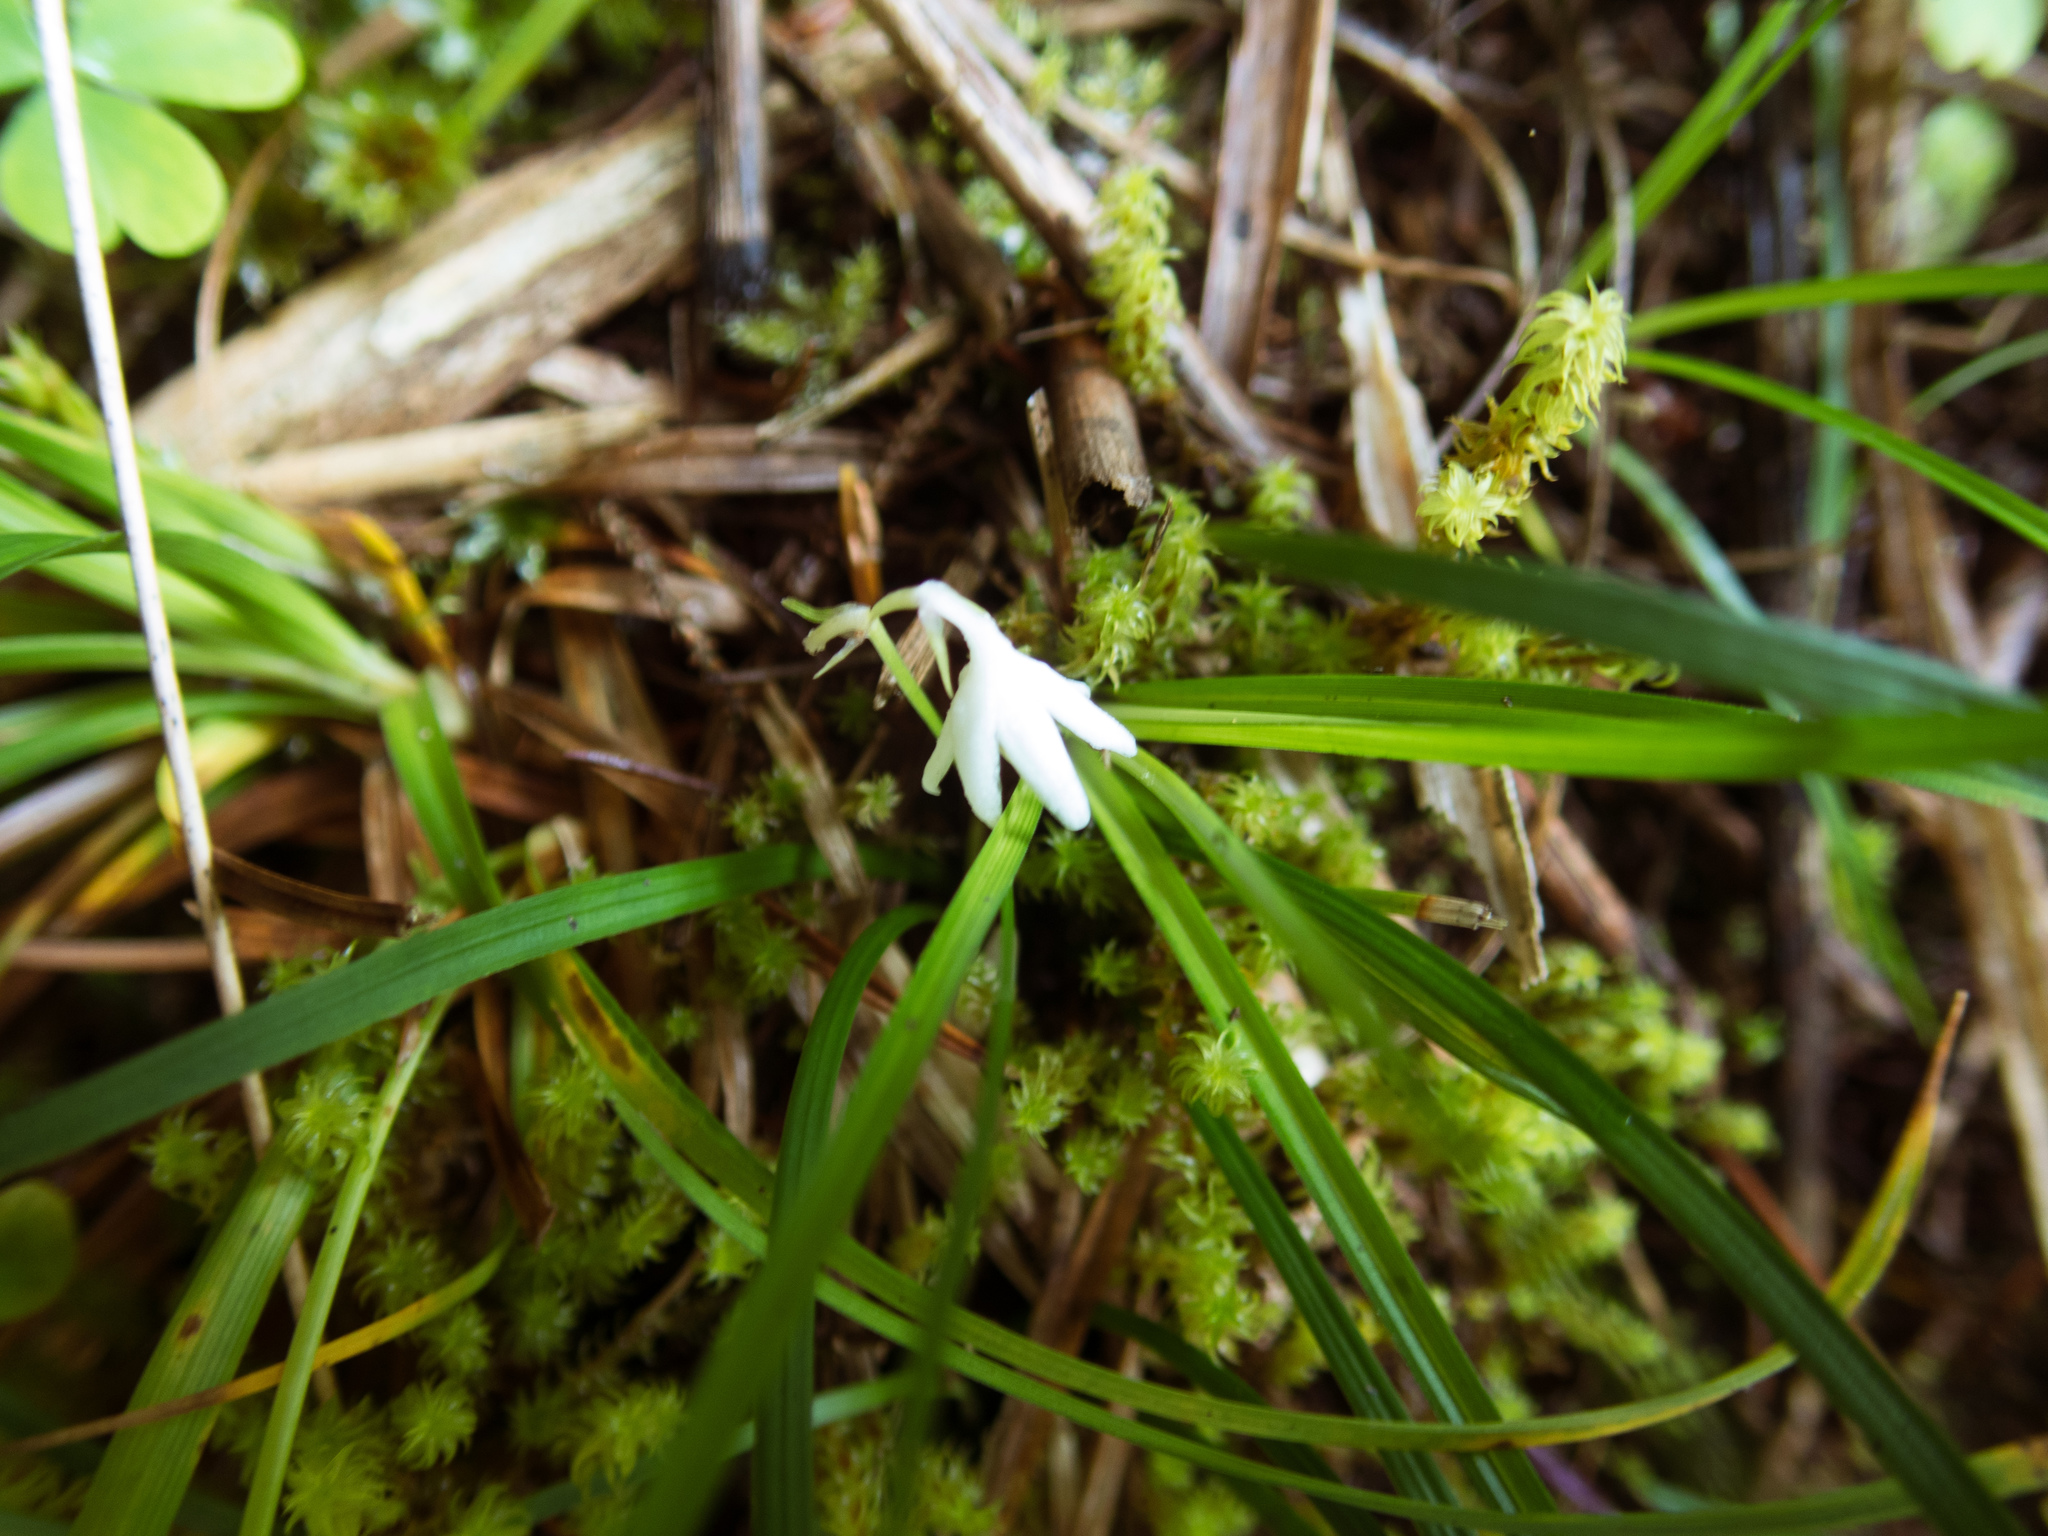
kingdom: Plantae
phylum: Tracheophyta
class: Liliopsida
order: Asparagales
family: Asparagaceae
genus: Ophiopogon
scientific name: Ophiopogon intermedius
